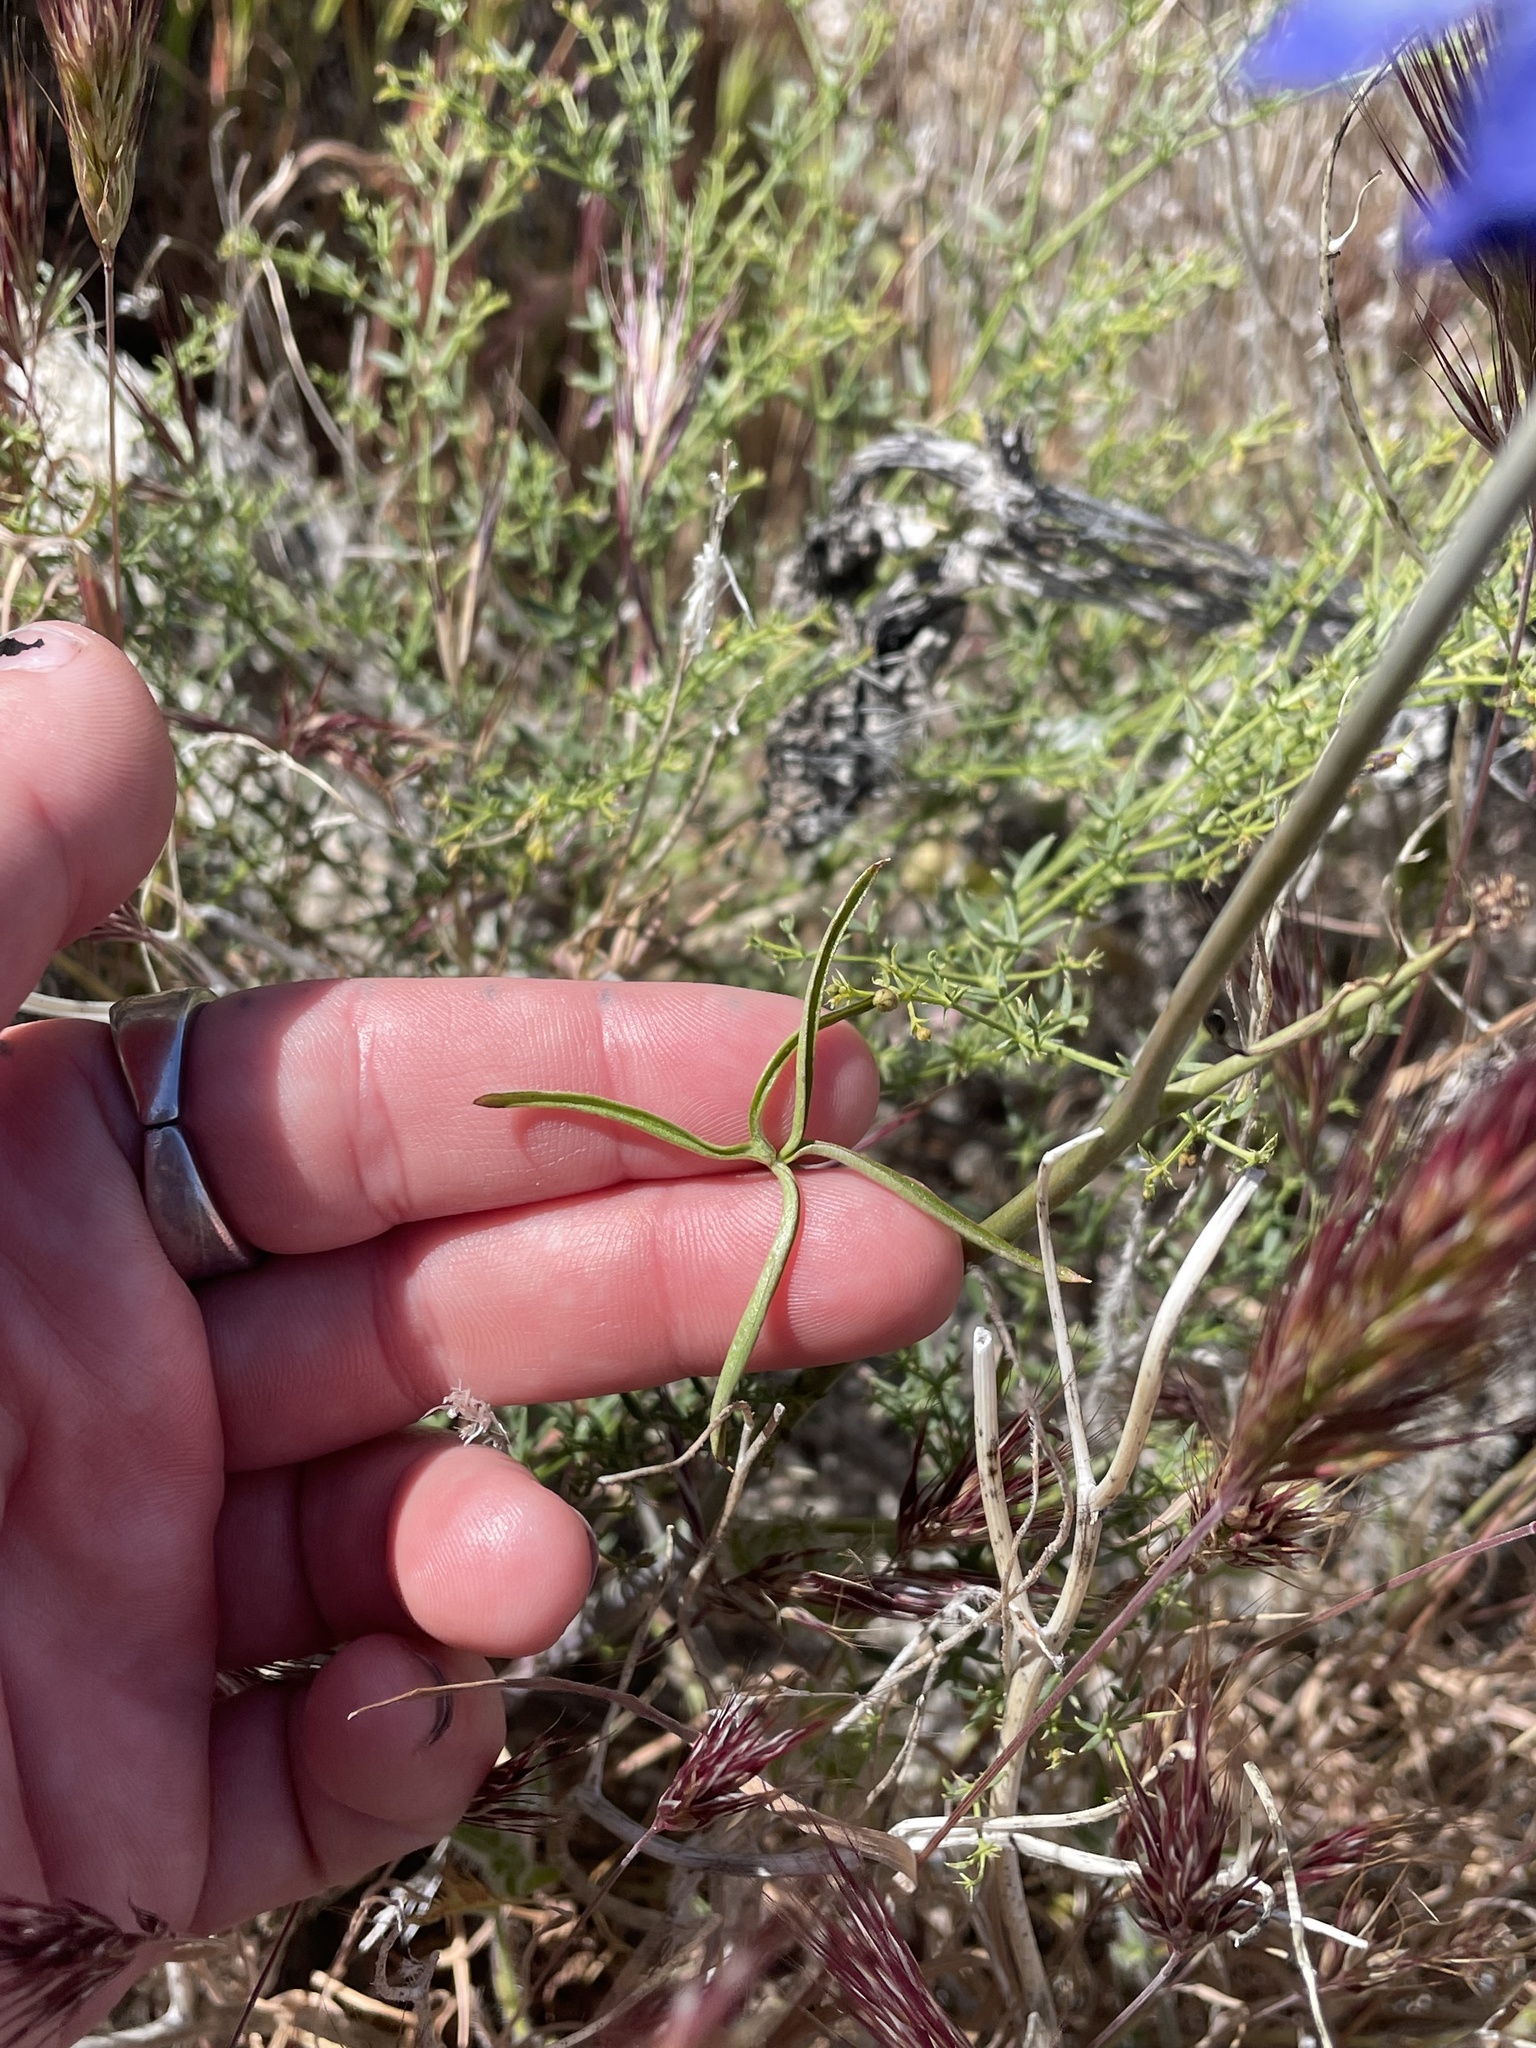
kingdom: Plantae
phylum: Tracheophyta
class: Magnoliopsida
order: Ranunculales
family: Ranunculaceae
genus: Delphinium
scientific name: Delphinium parishii
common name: Apache larkspur
